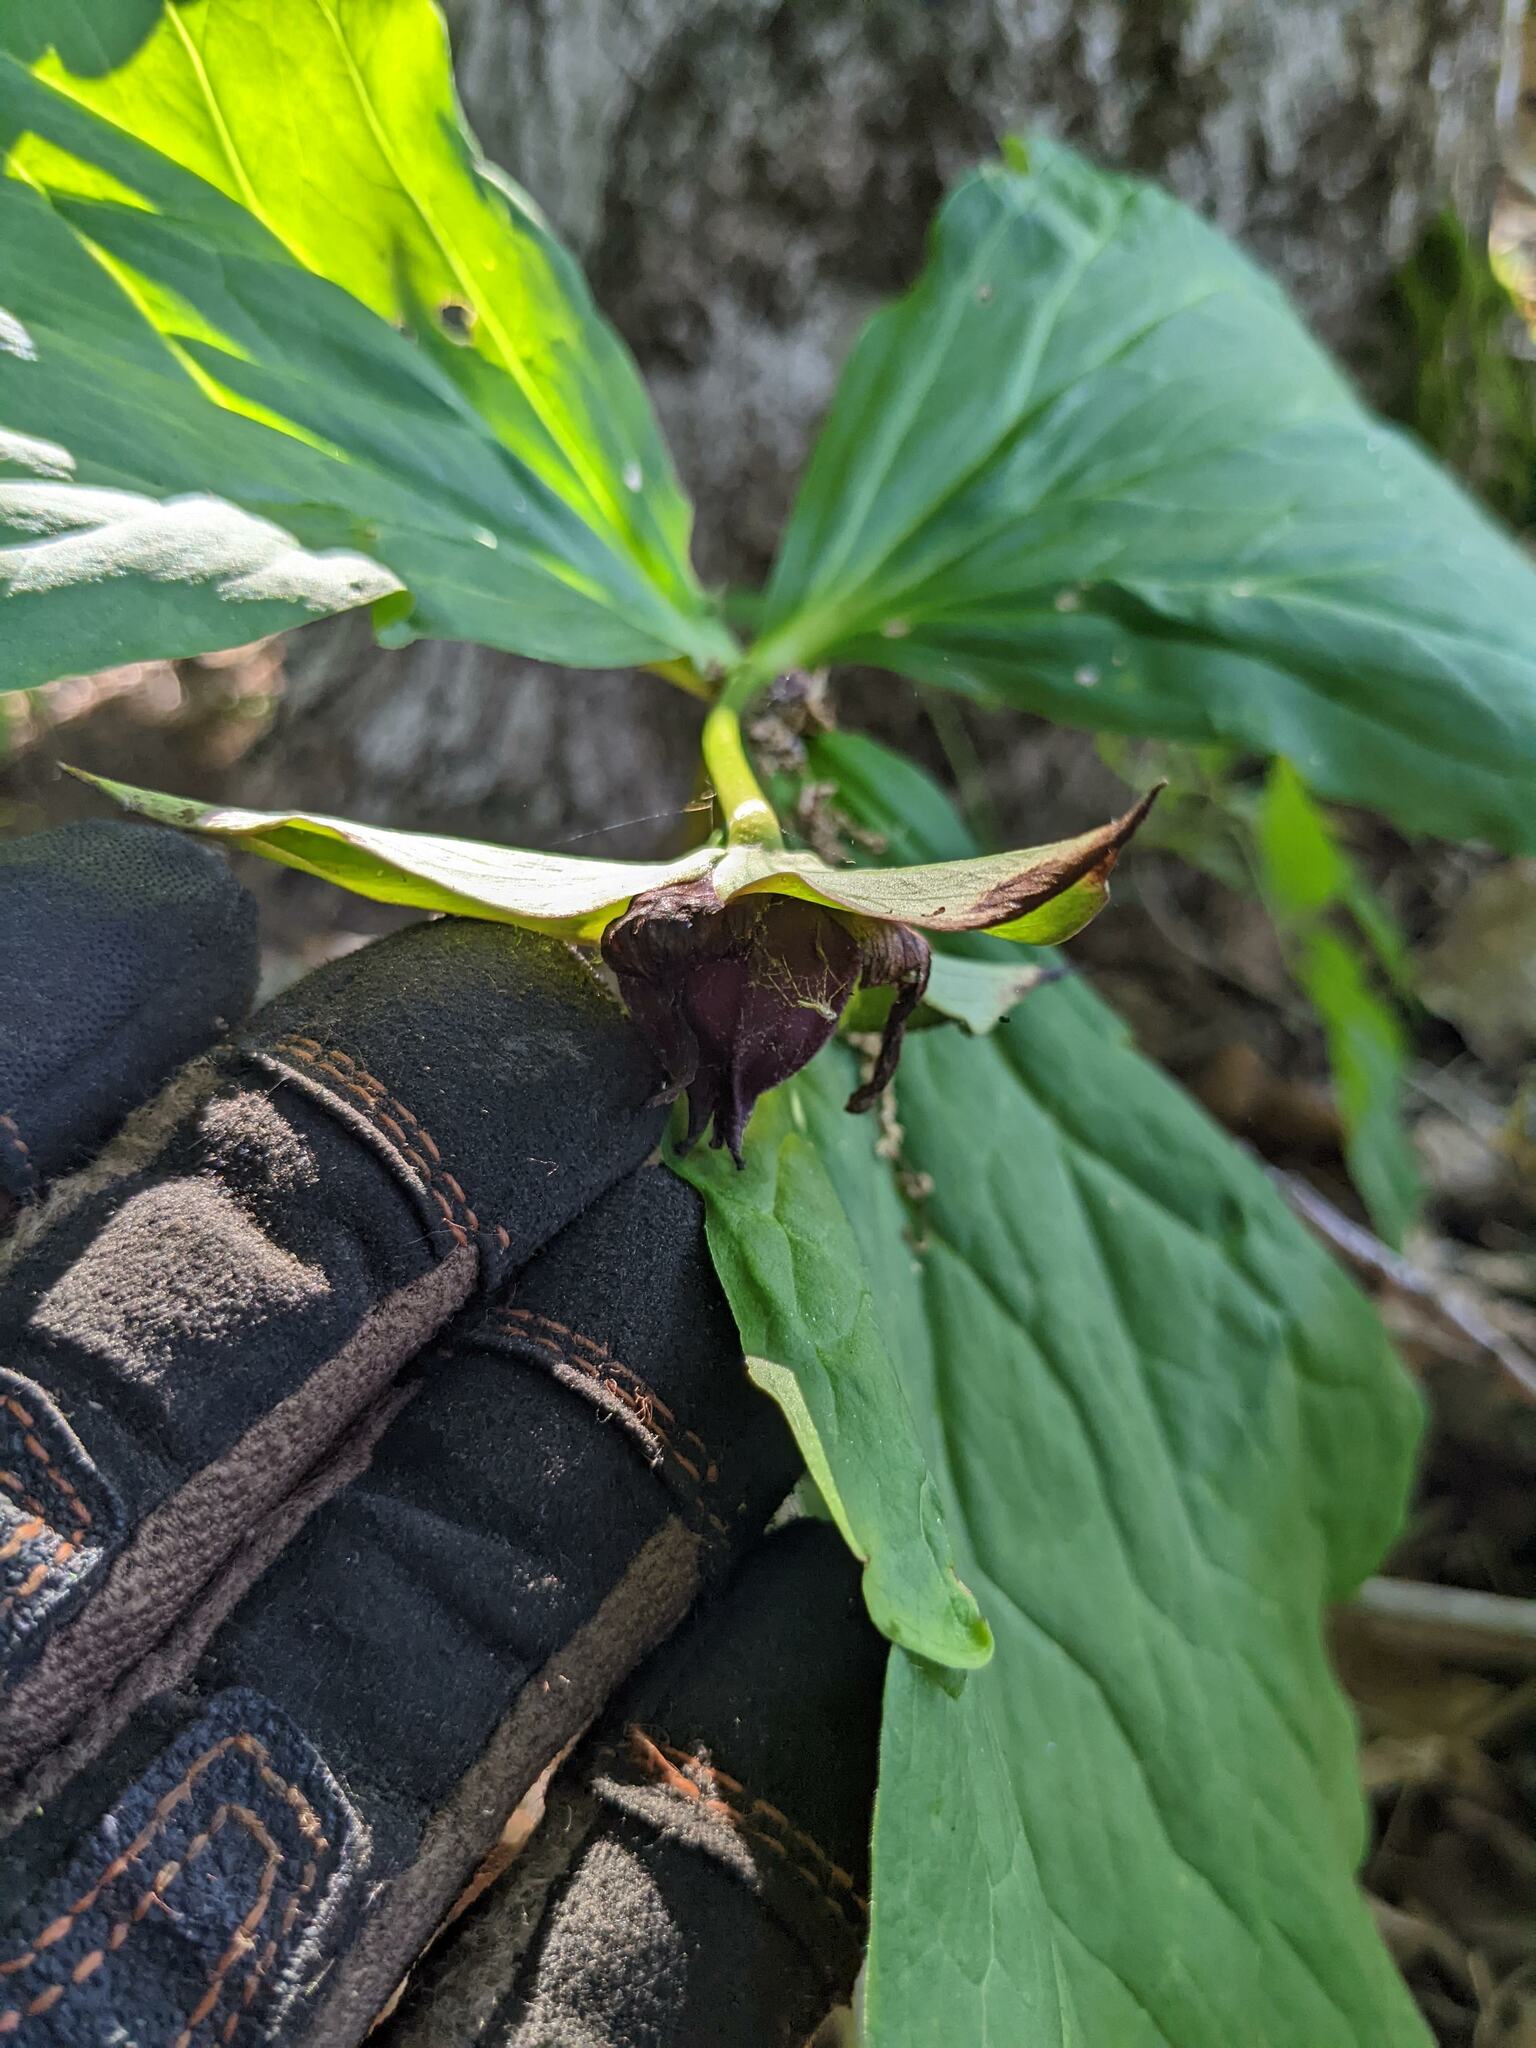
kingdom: Plantae
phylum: Tracheophyta
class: Liliopsida
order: Liliales
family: Melanthiaceae
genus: Trillium
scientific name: Trillium erectum
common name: Purple trillium
